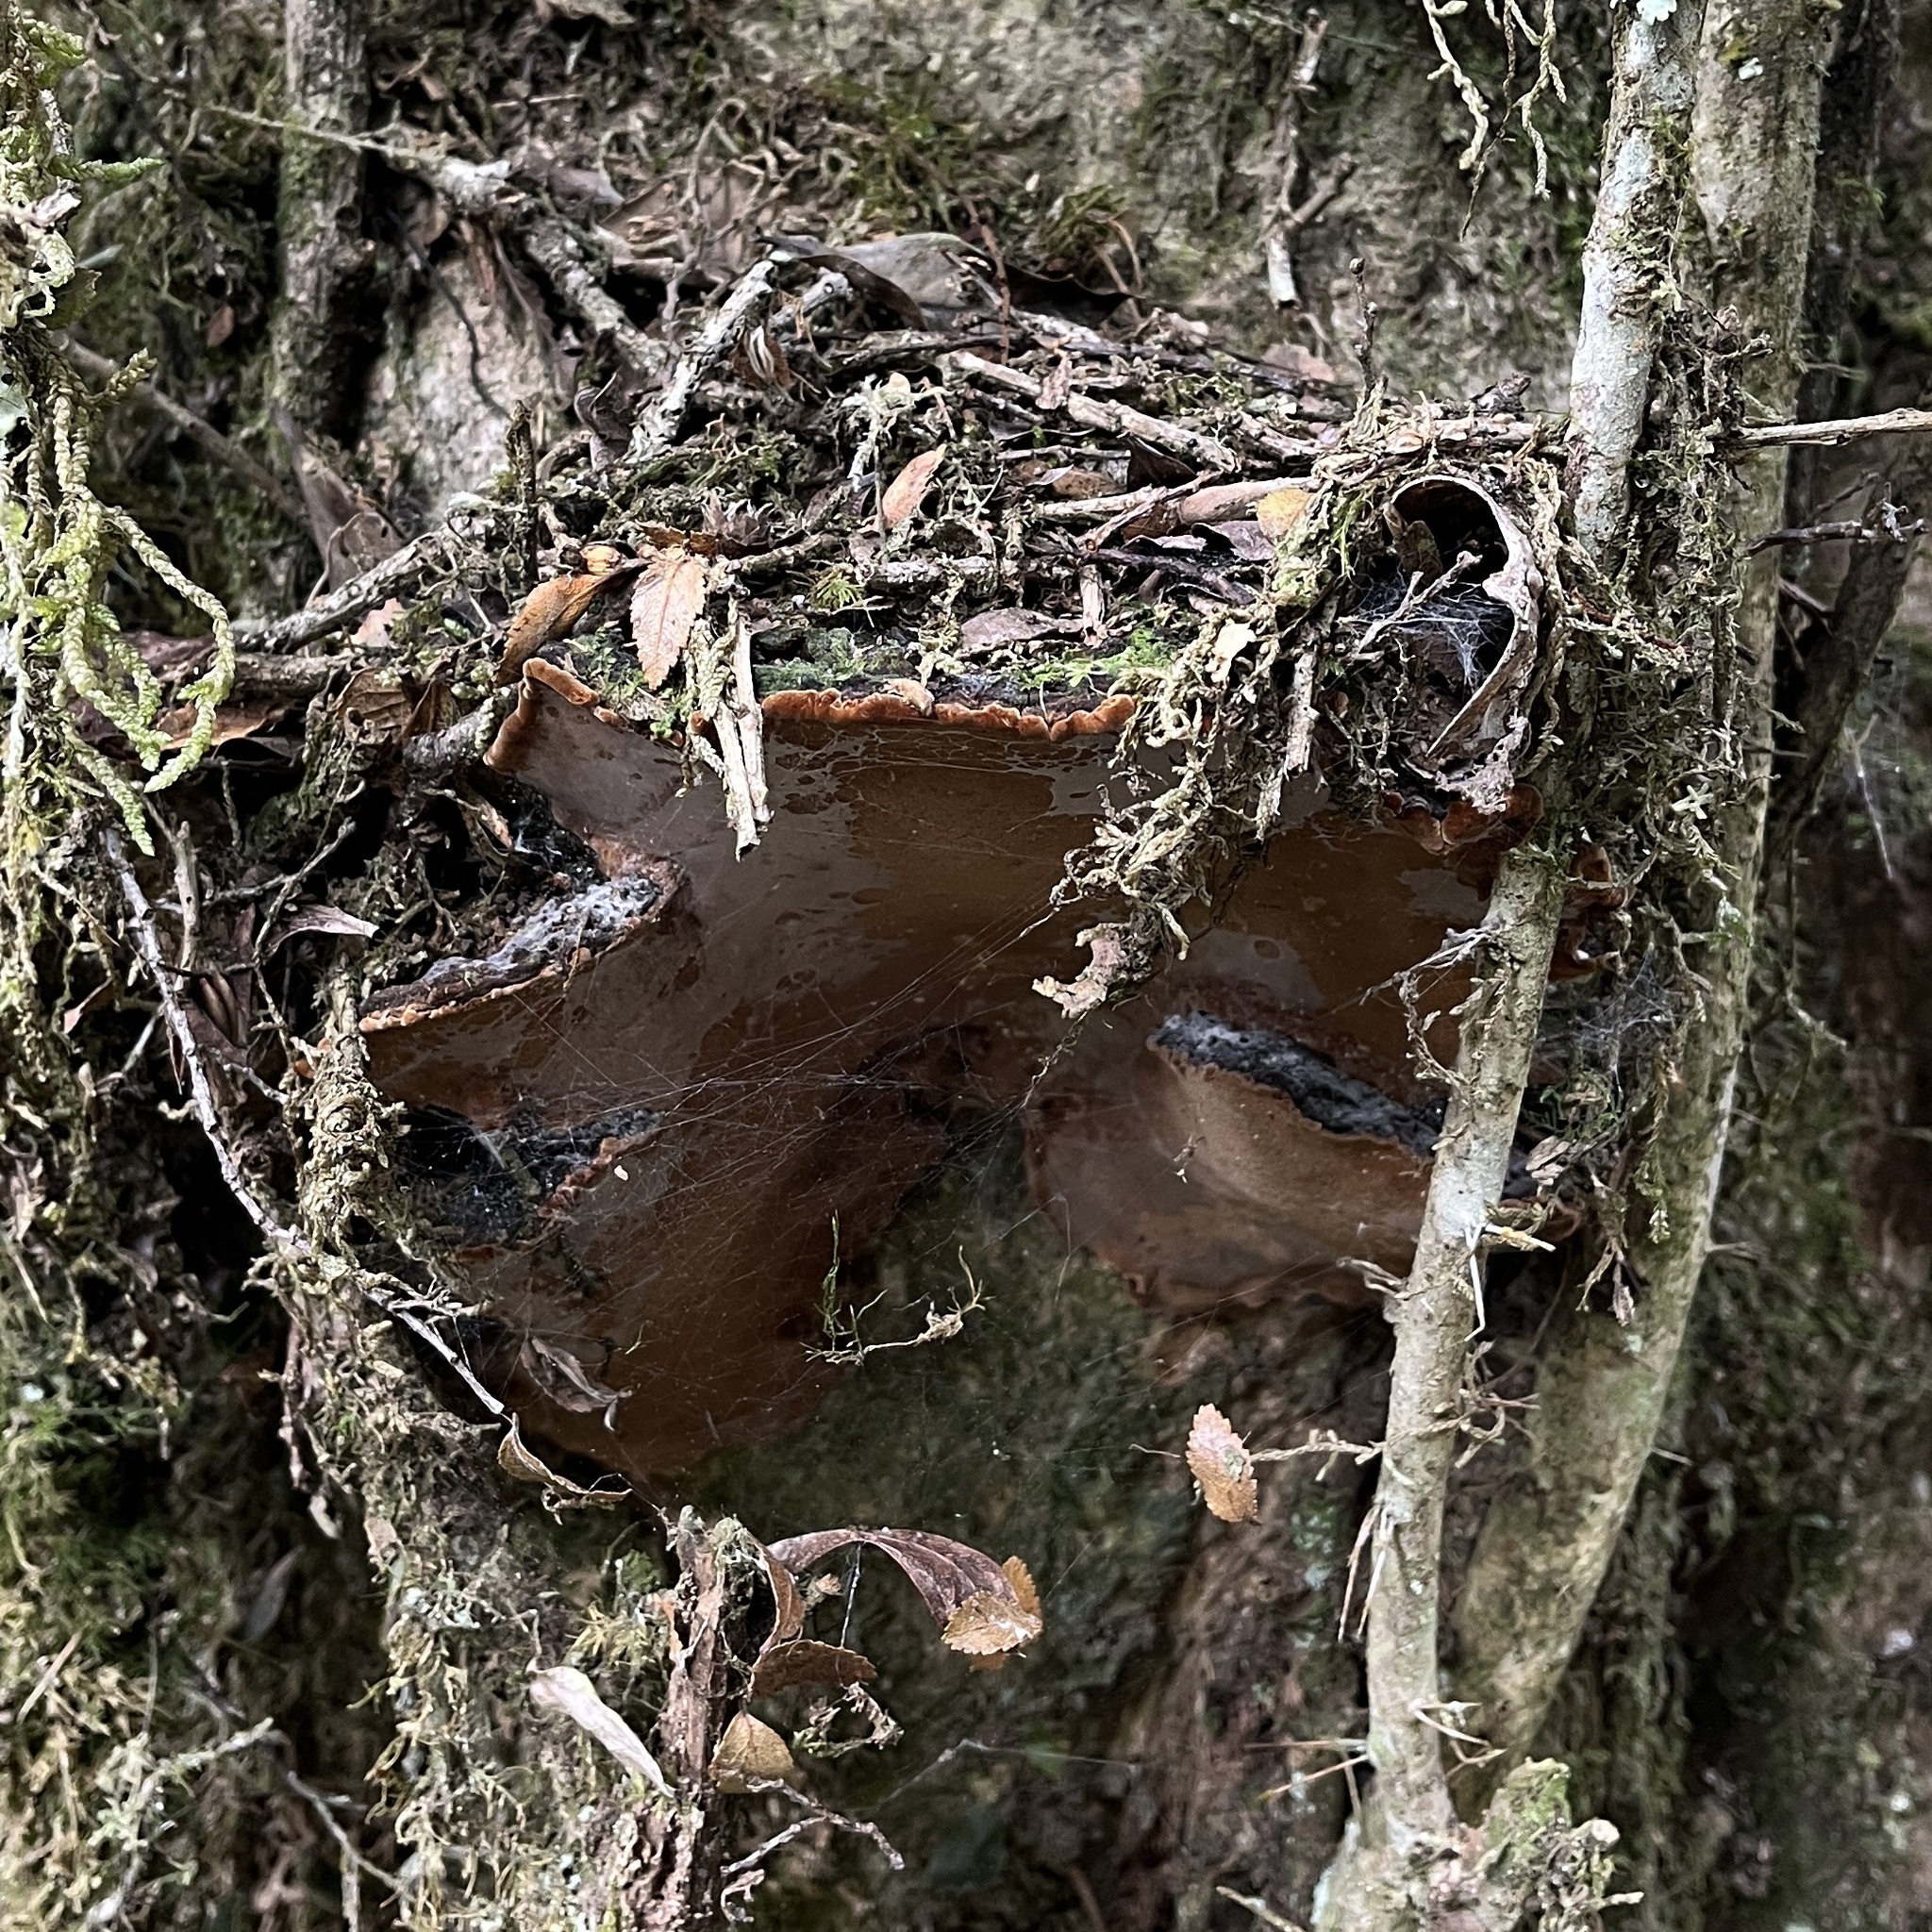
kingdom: Fungi
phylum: Basidiomycota
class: Agaricomycetes
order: Hymenochaetales
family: Hymenochaetaceae
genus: Fuscoporia
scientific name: Fuscoporia senex
